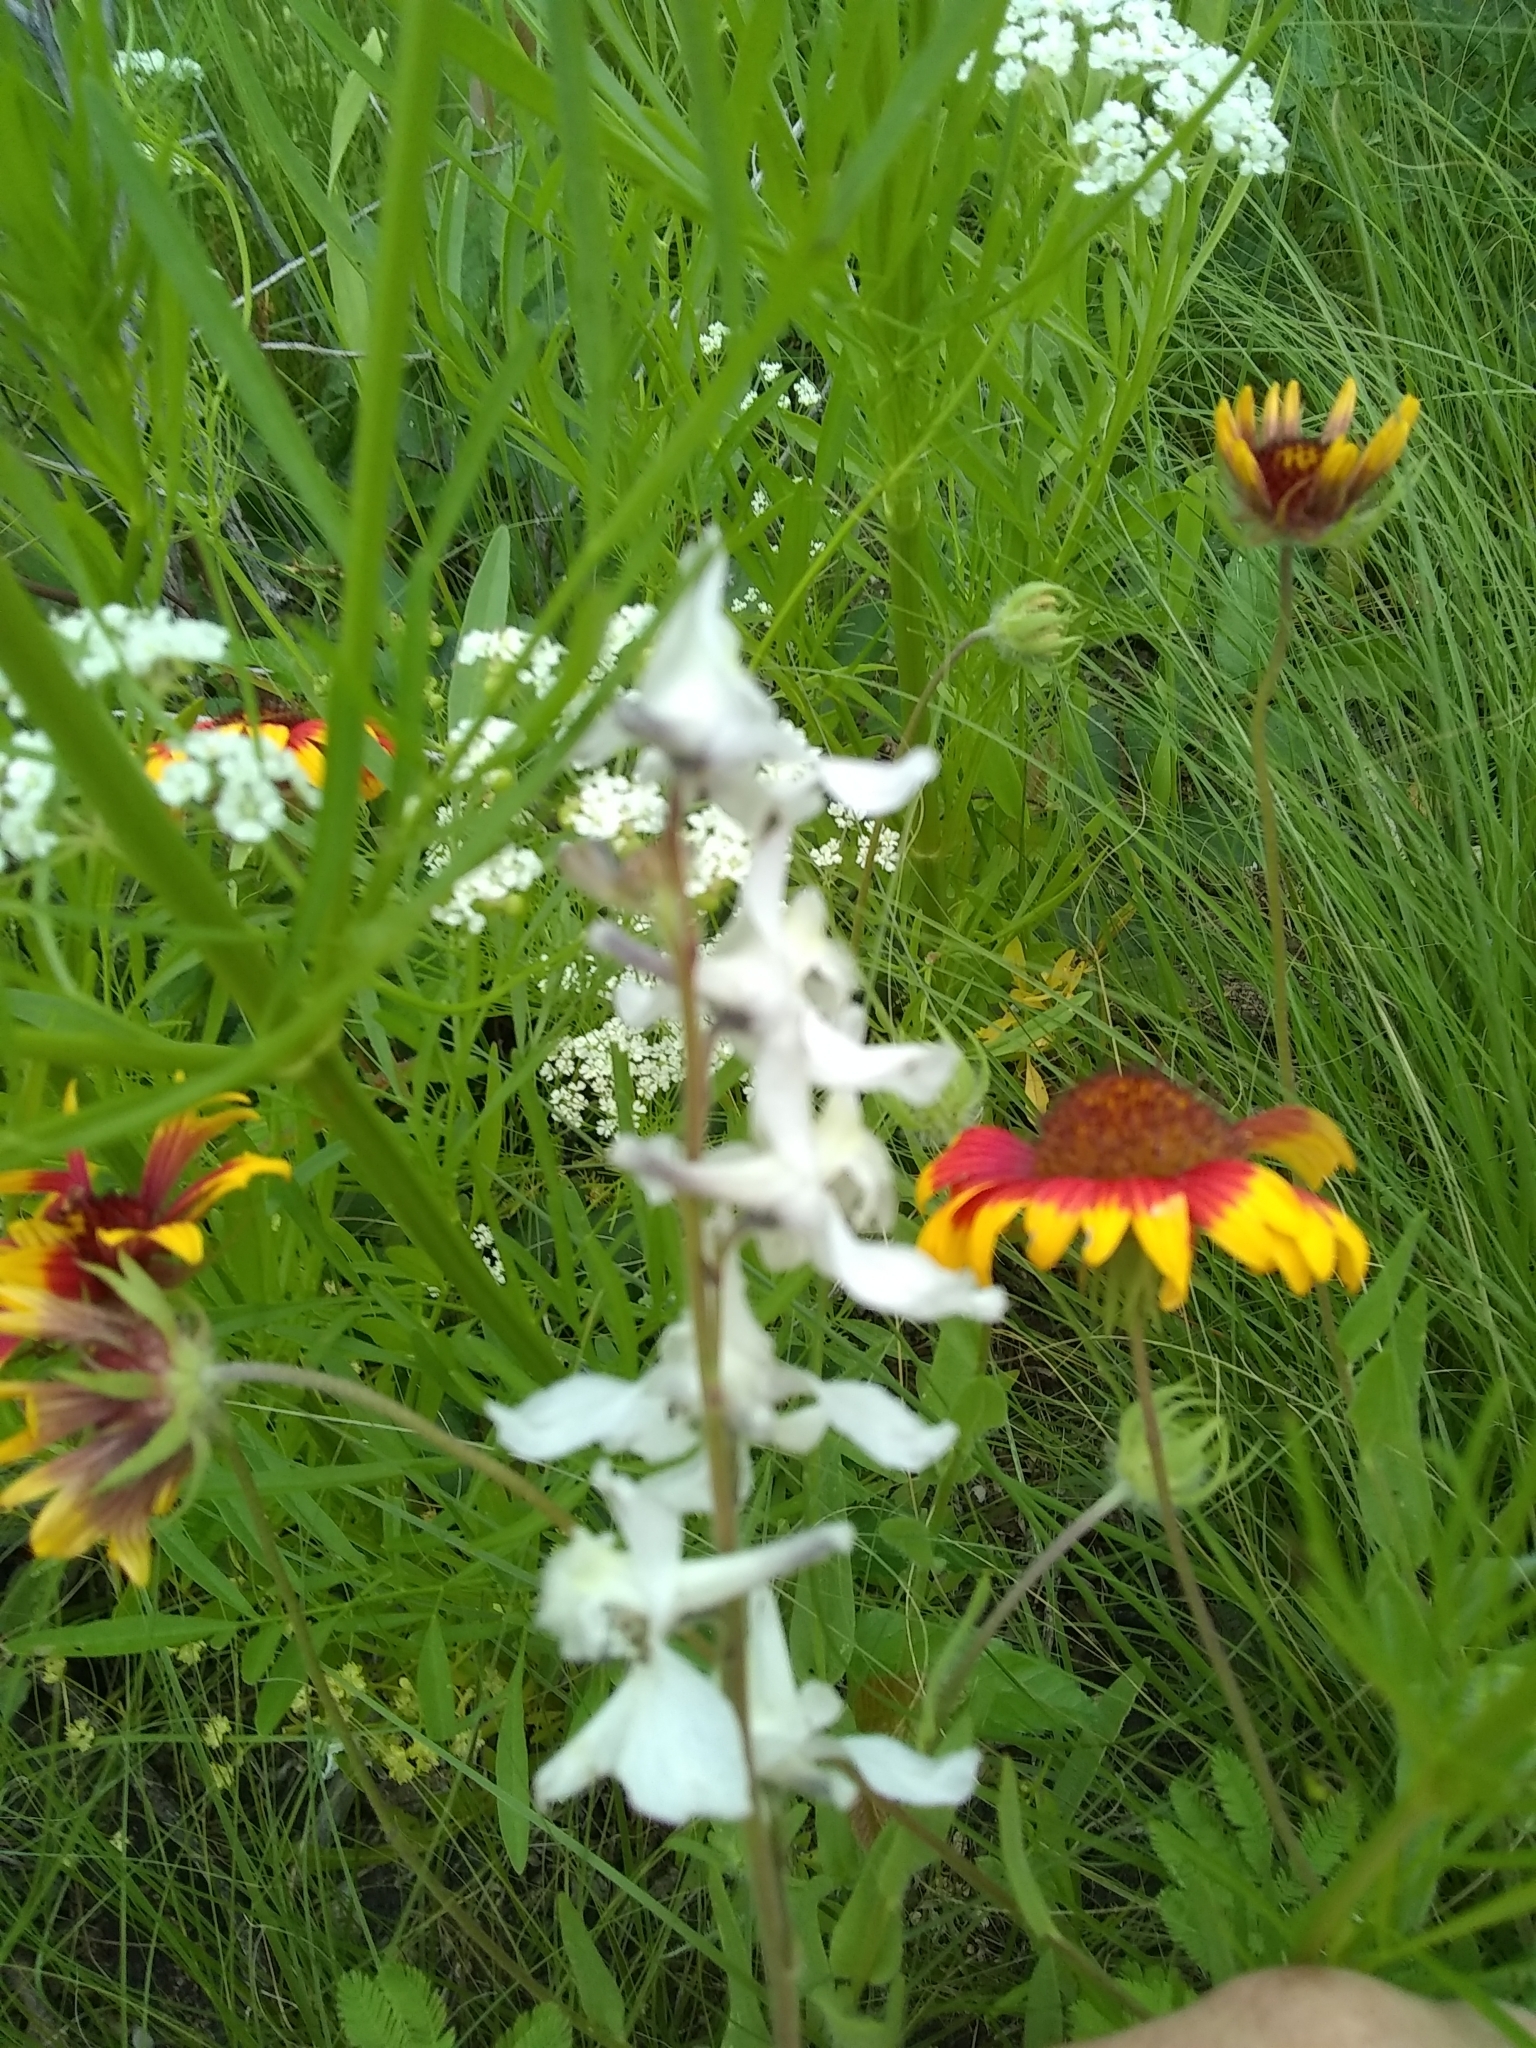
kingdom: Plantae
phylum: Tracheophyta
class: Magnoliopsida
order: Ranunculales
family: Ranunculaceae
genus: Delphinium
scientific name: Delphinium carolinianum
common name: Carolina larkspur
